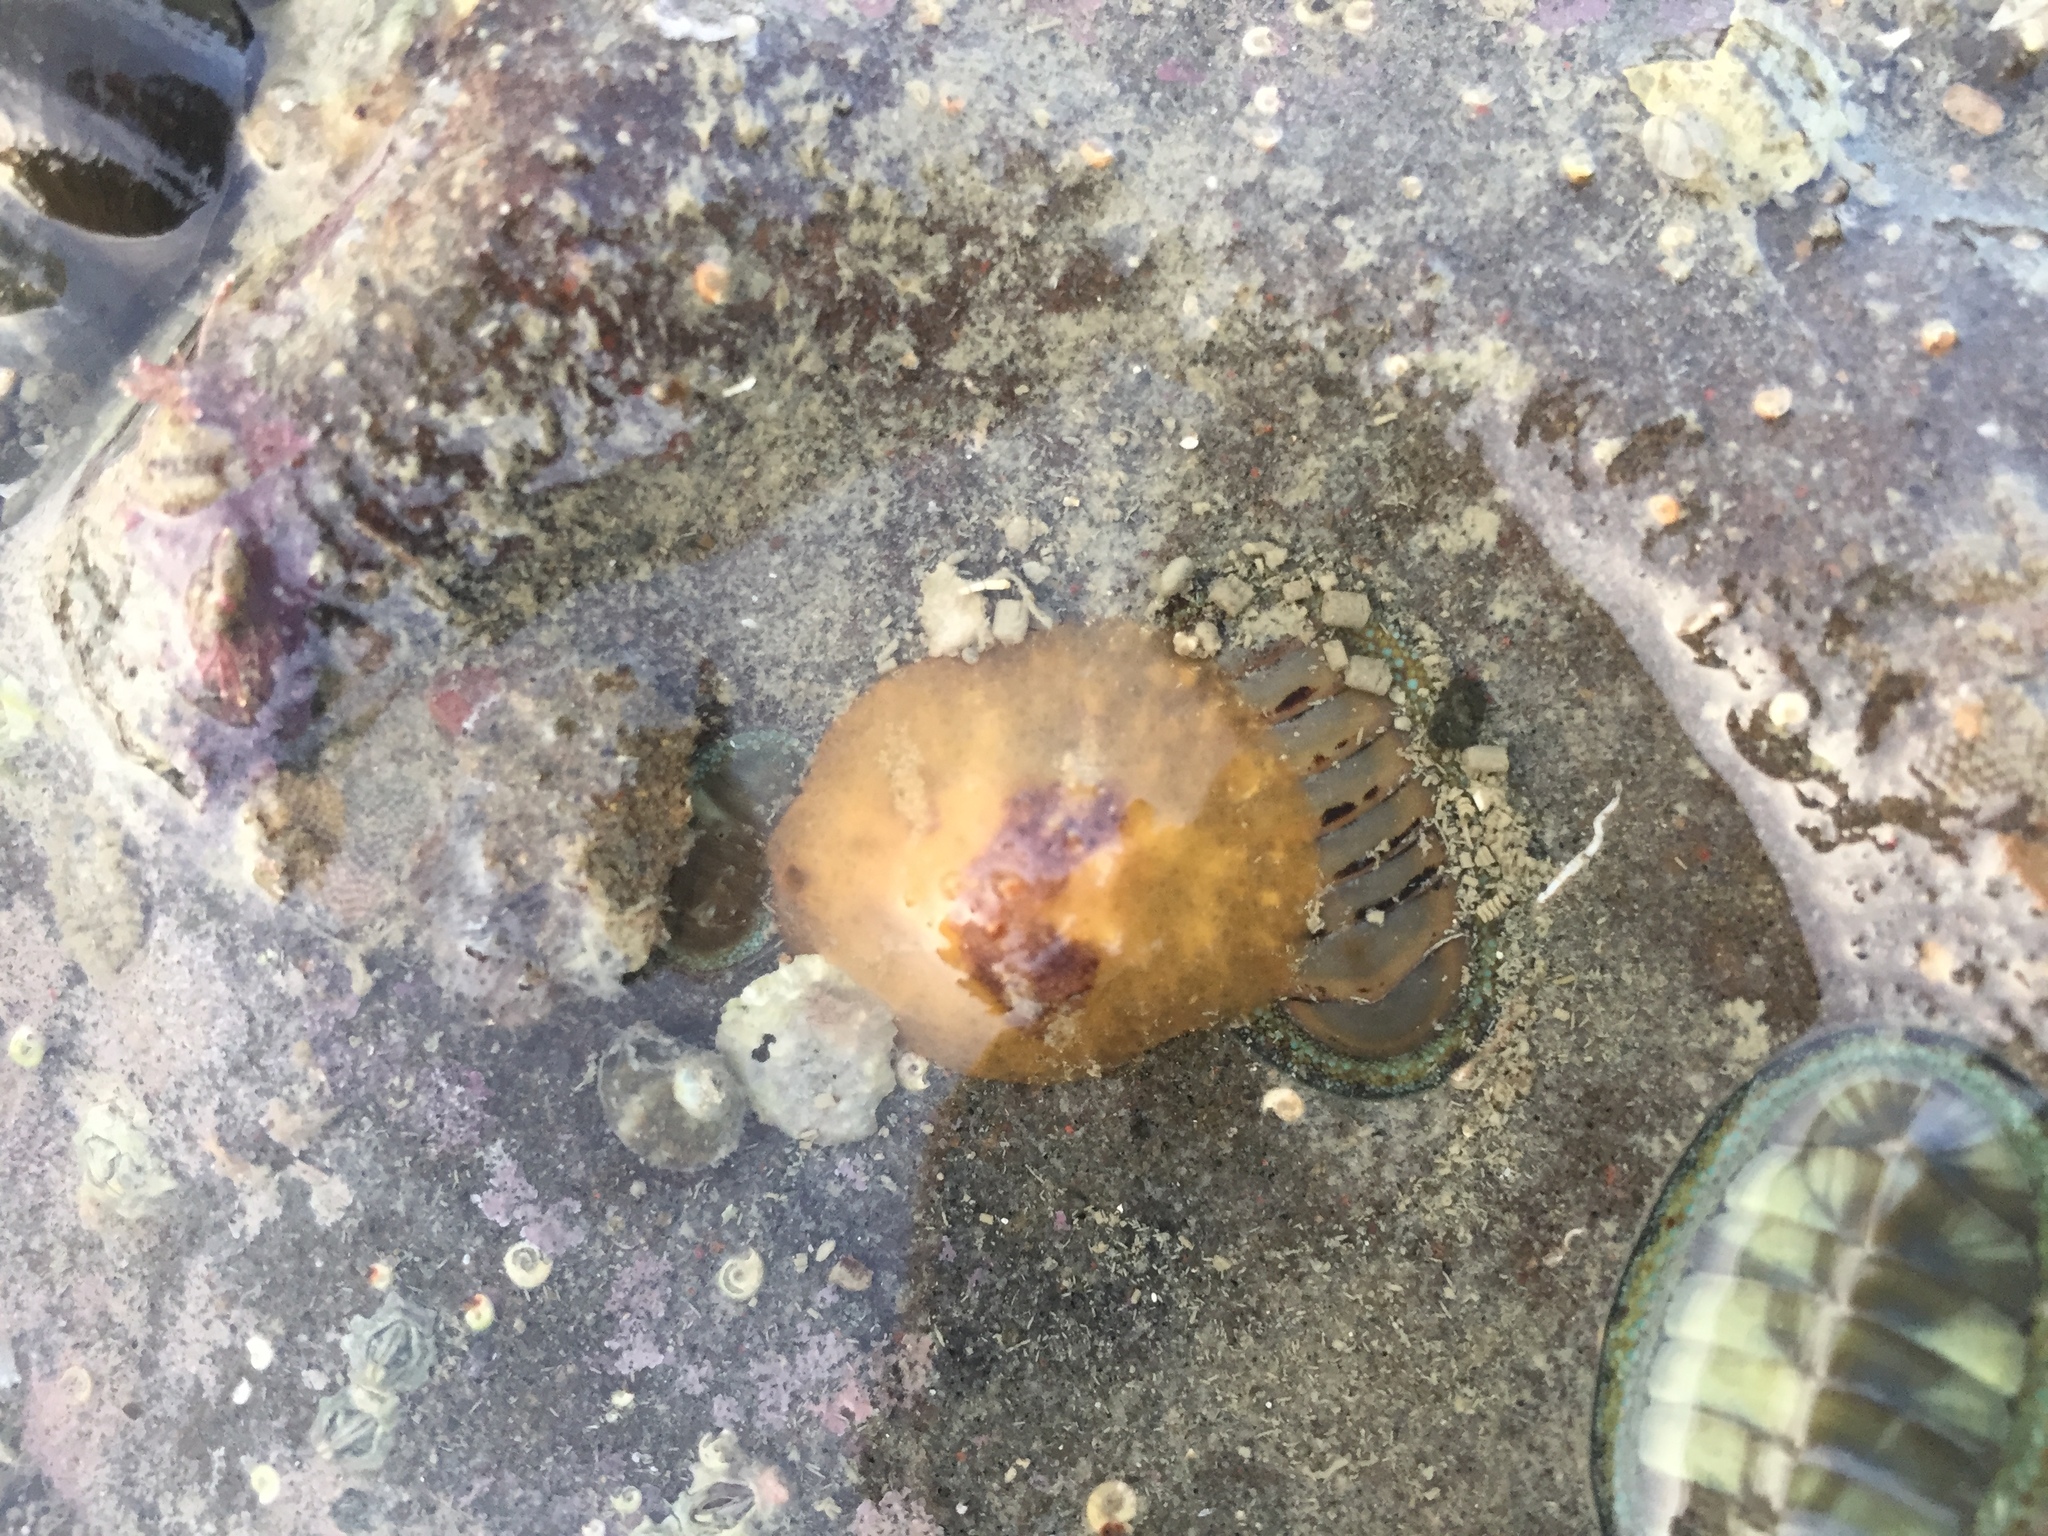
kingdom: Animalia
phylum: Mollusca
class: Gastropoda
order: Littorinimorpha
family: Velutinidae
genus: Lamellaria
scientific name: Lamellaria ophione
